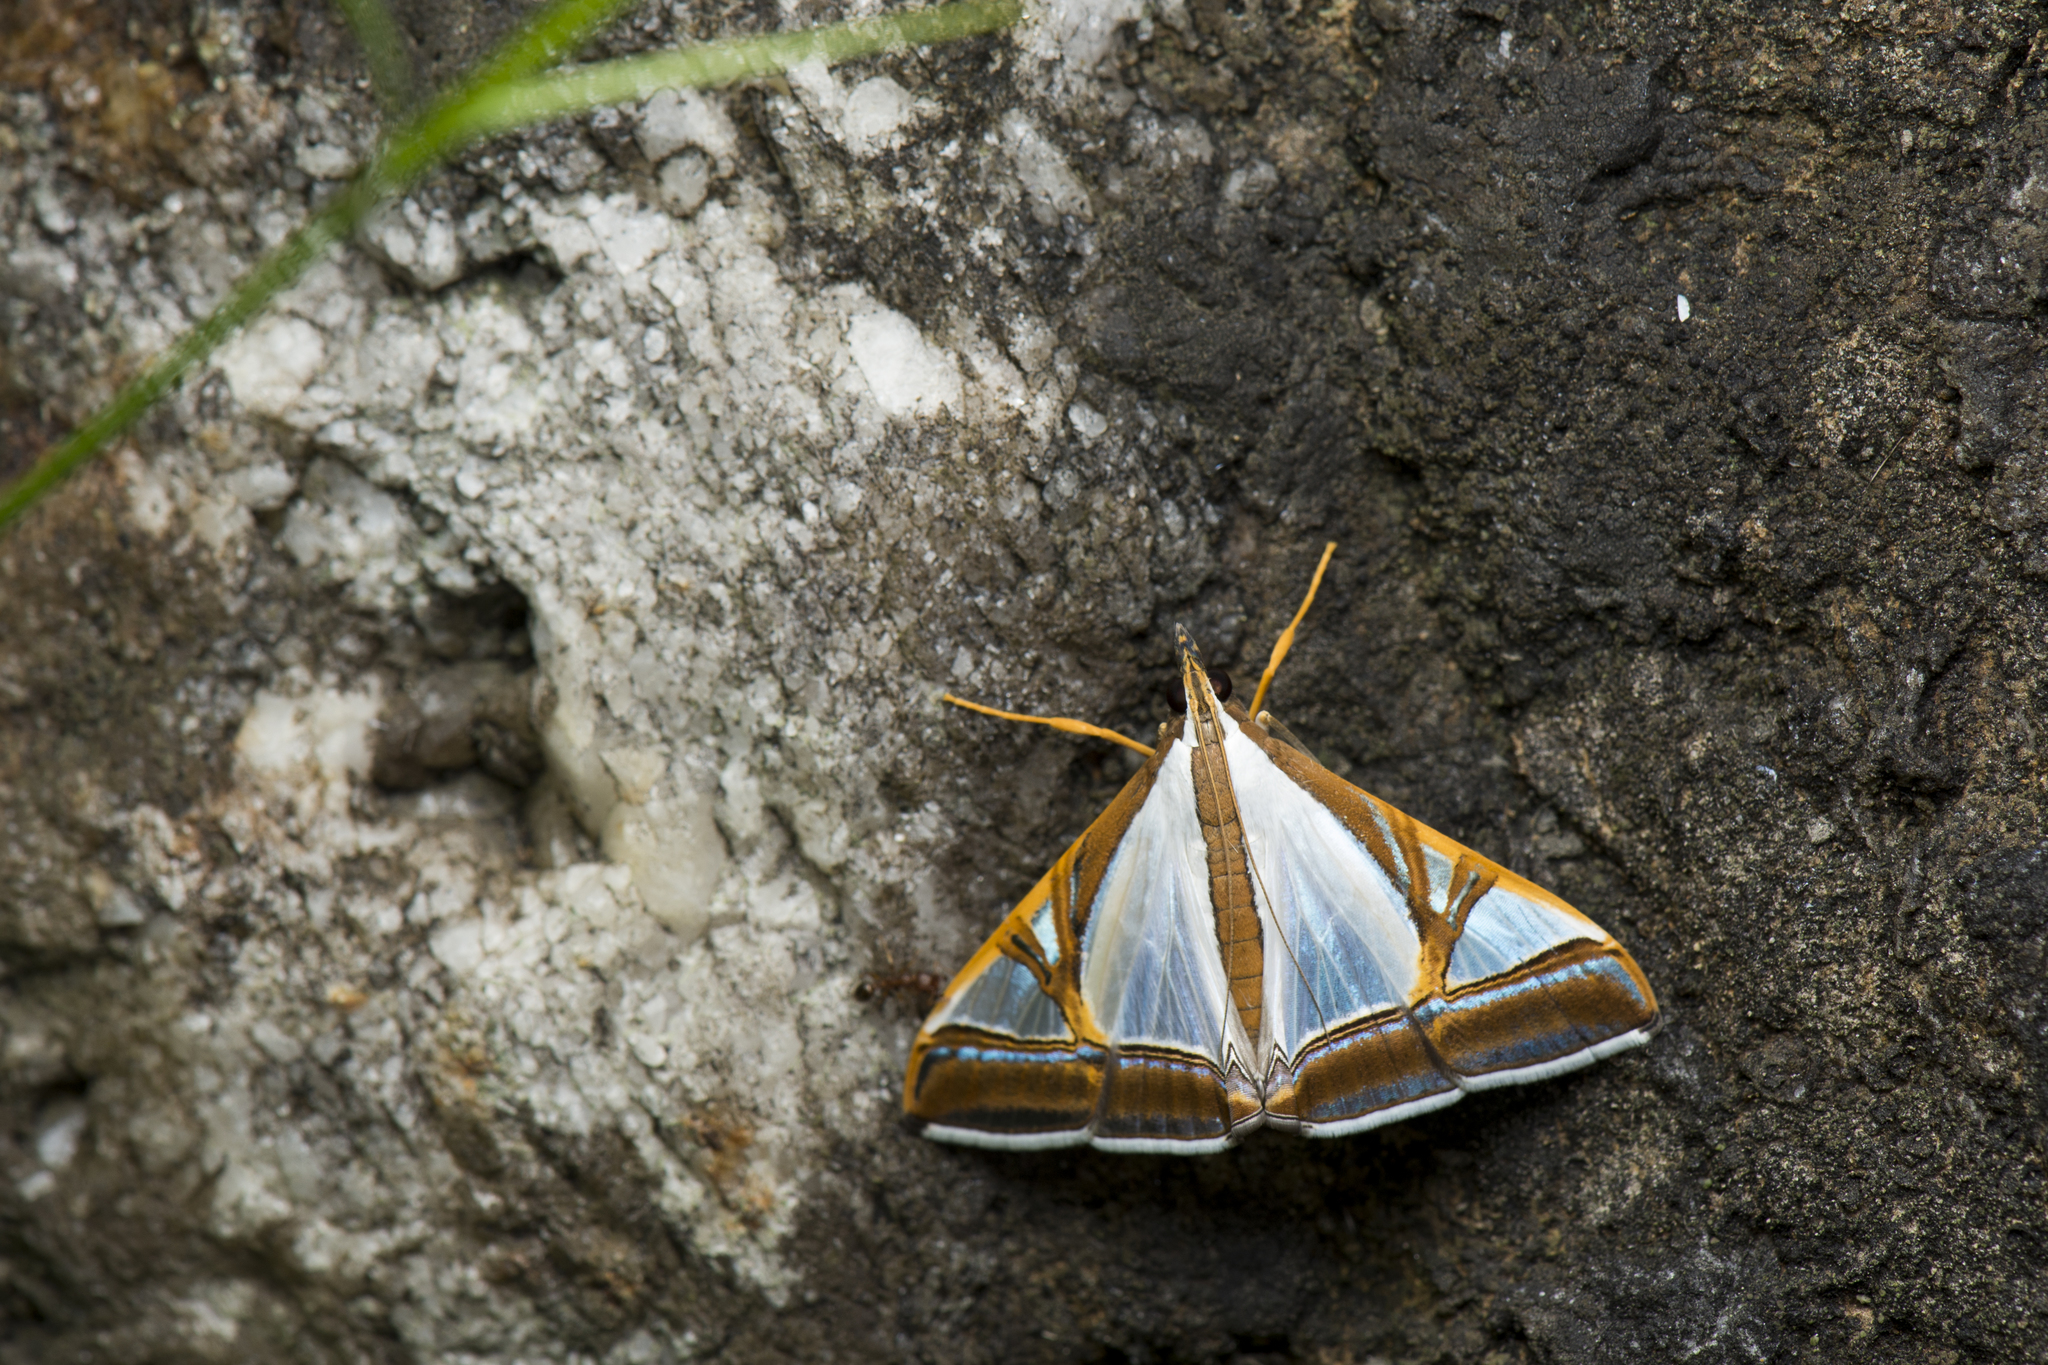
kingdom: Animalia
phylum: Arthropoda
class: Insecta
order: Lepidoptera
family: Crambidae
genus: Agrioglypta
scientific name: Agrioglypta eurytusalis
